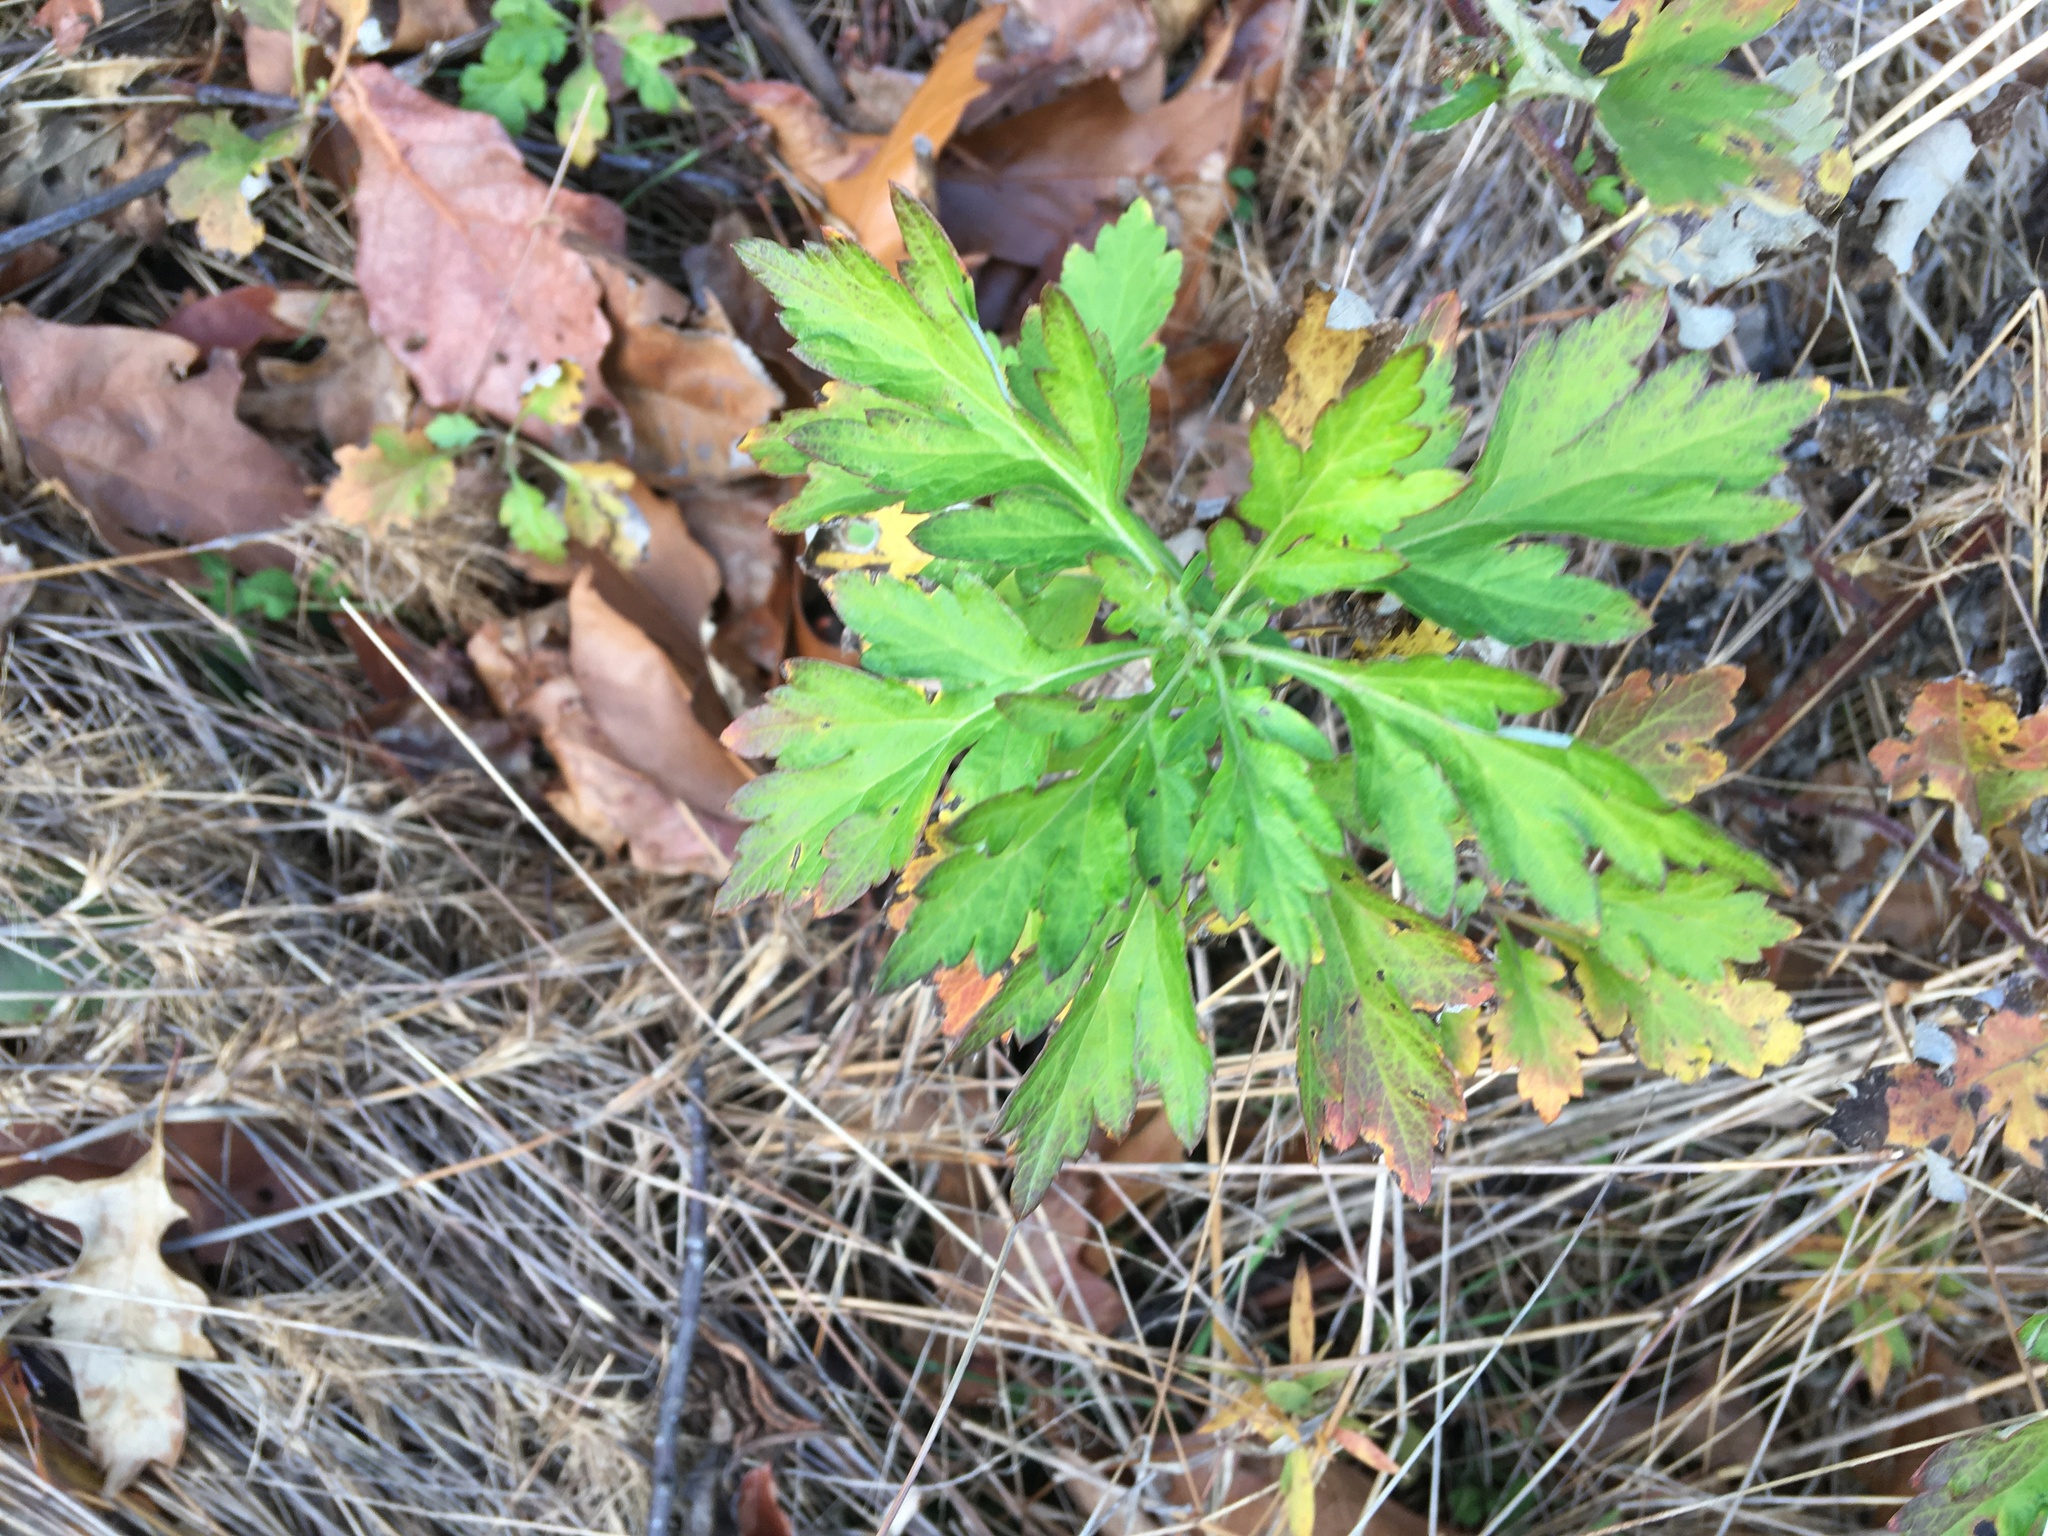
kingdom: Plantae
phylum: Tracheophyta
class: Magnoliopsida
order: Asterales
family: Asteraceae
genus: Artemisia
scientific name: Artemisia vulgaris
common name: Mugwort
